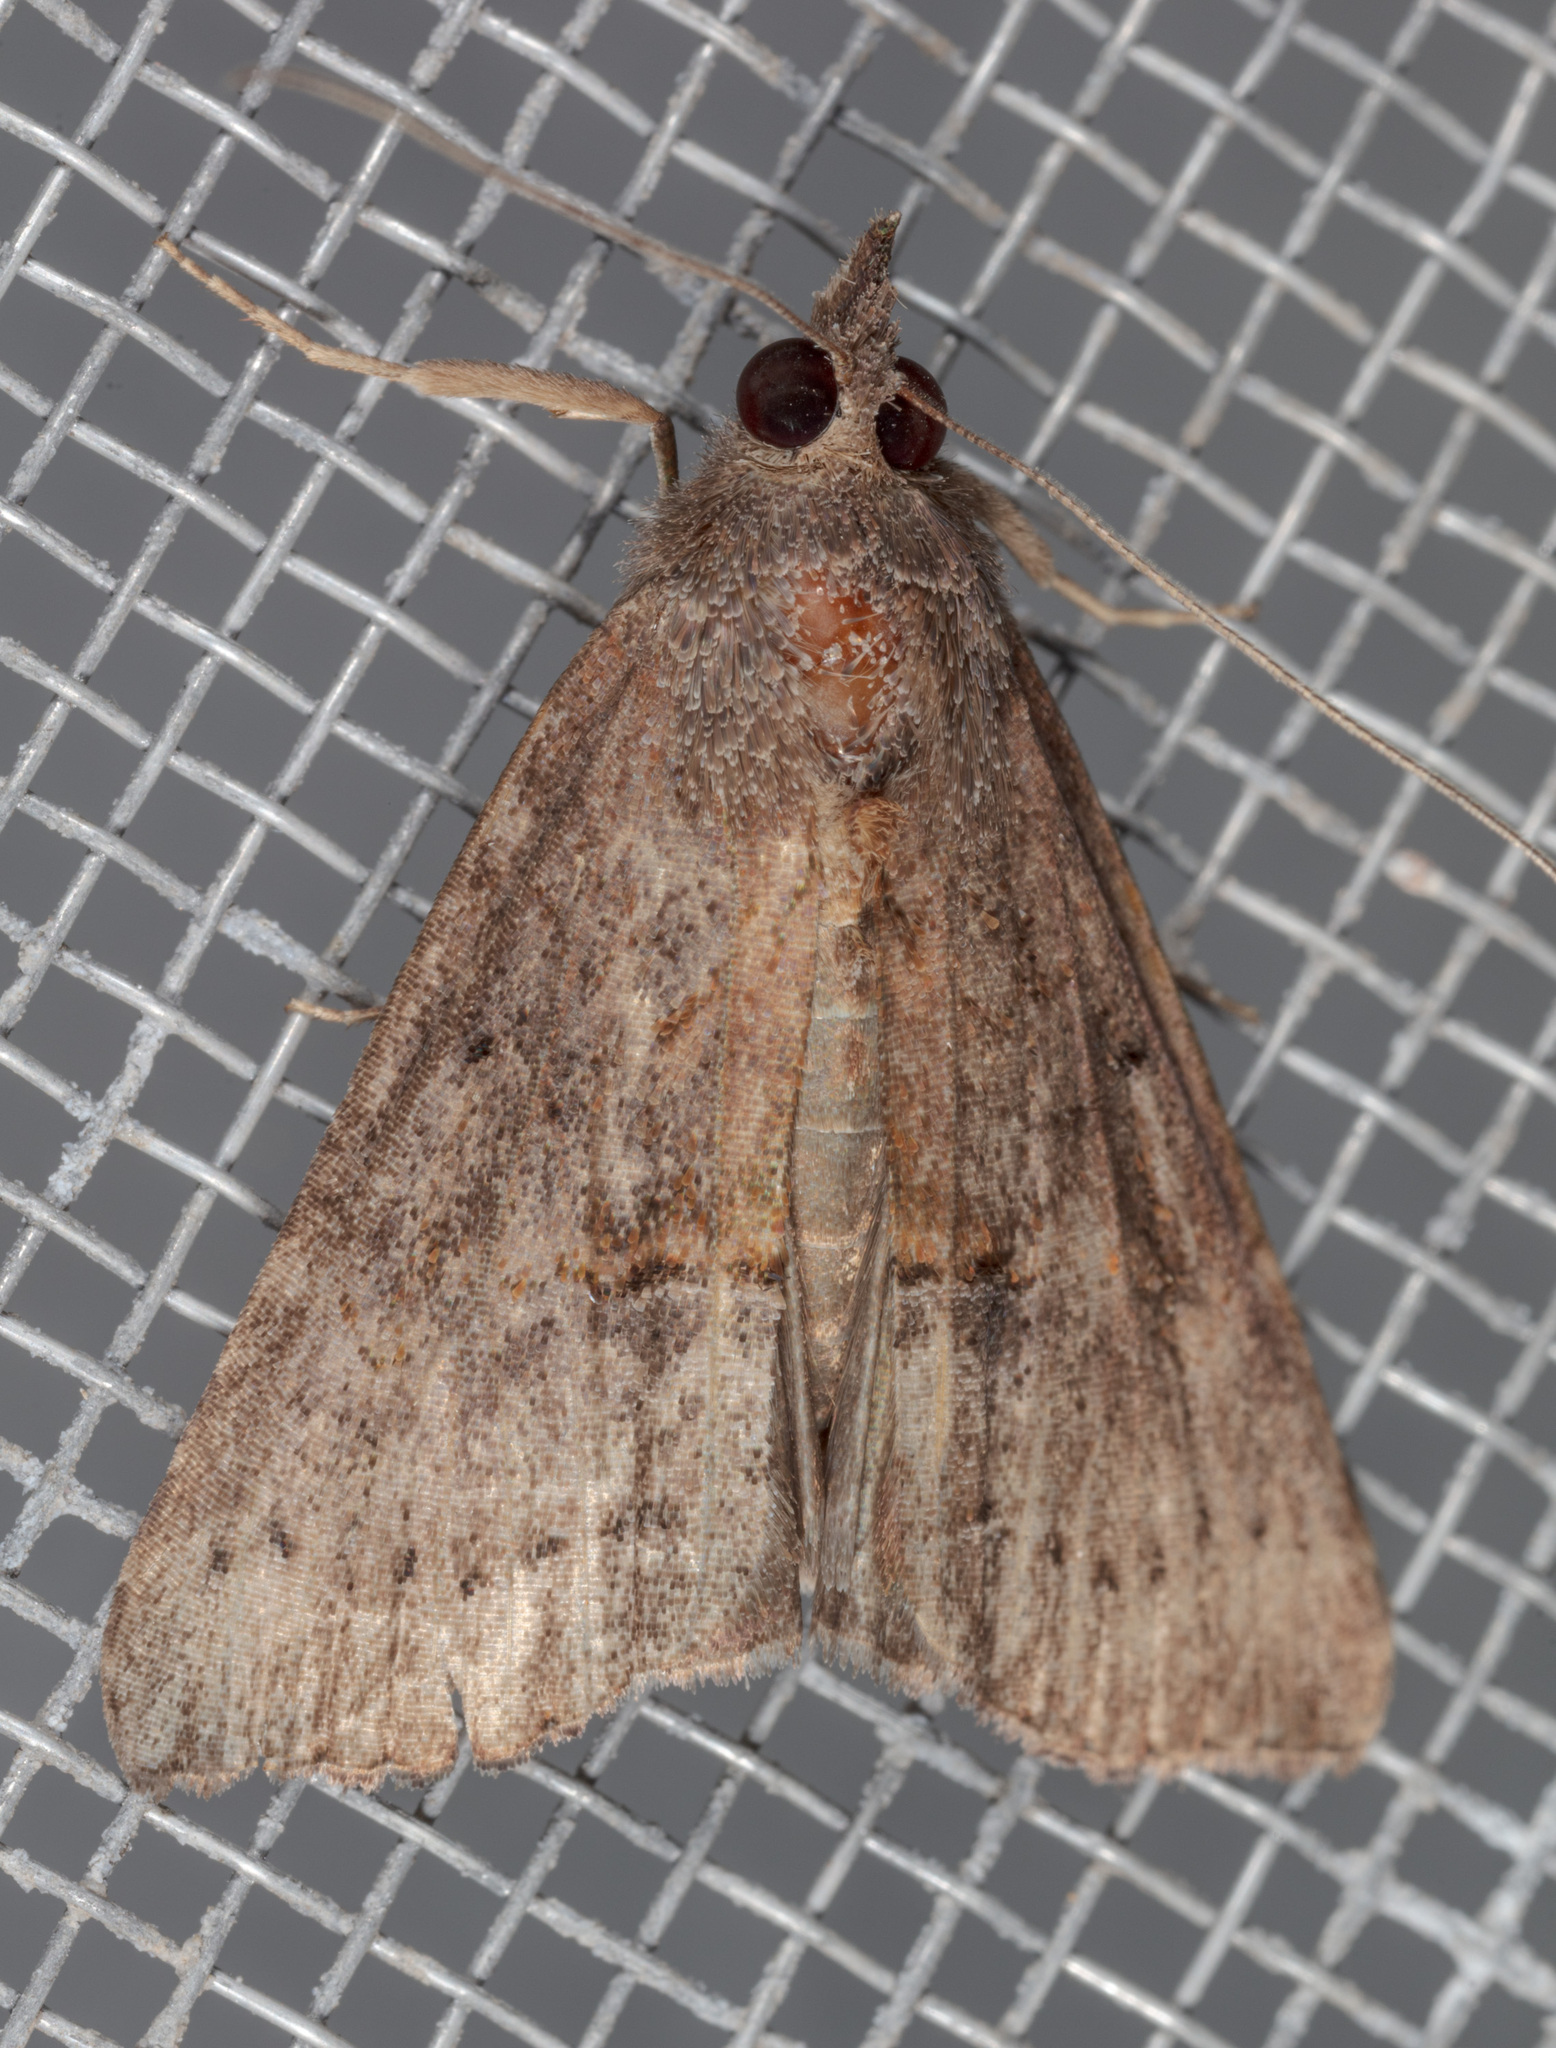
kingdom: Animalia
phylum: Arthropoda
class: Insecta
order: Lepidoptera
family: Erebidae
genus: Hypena
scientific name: Hypena scabra
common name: Green cloverworm
